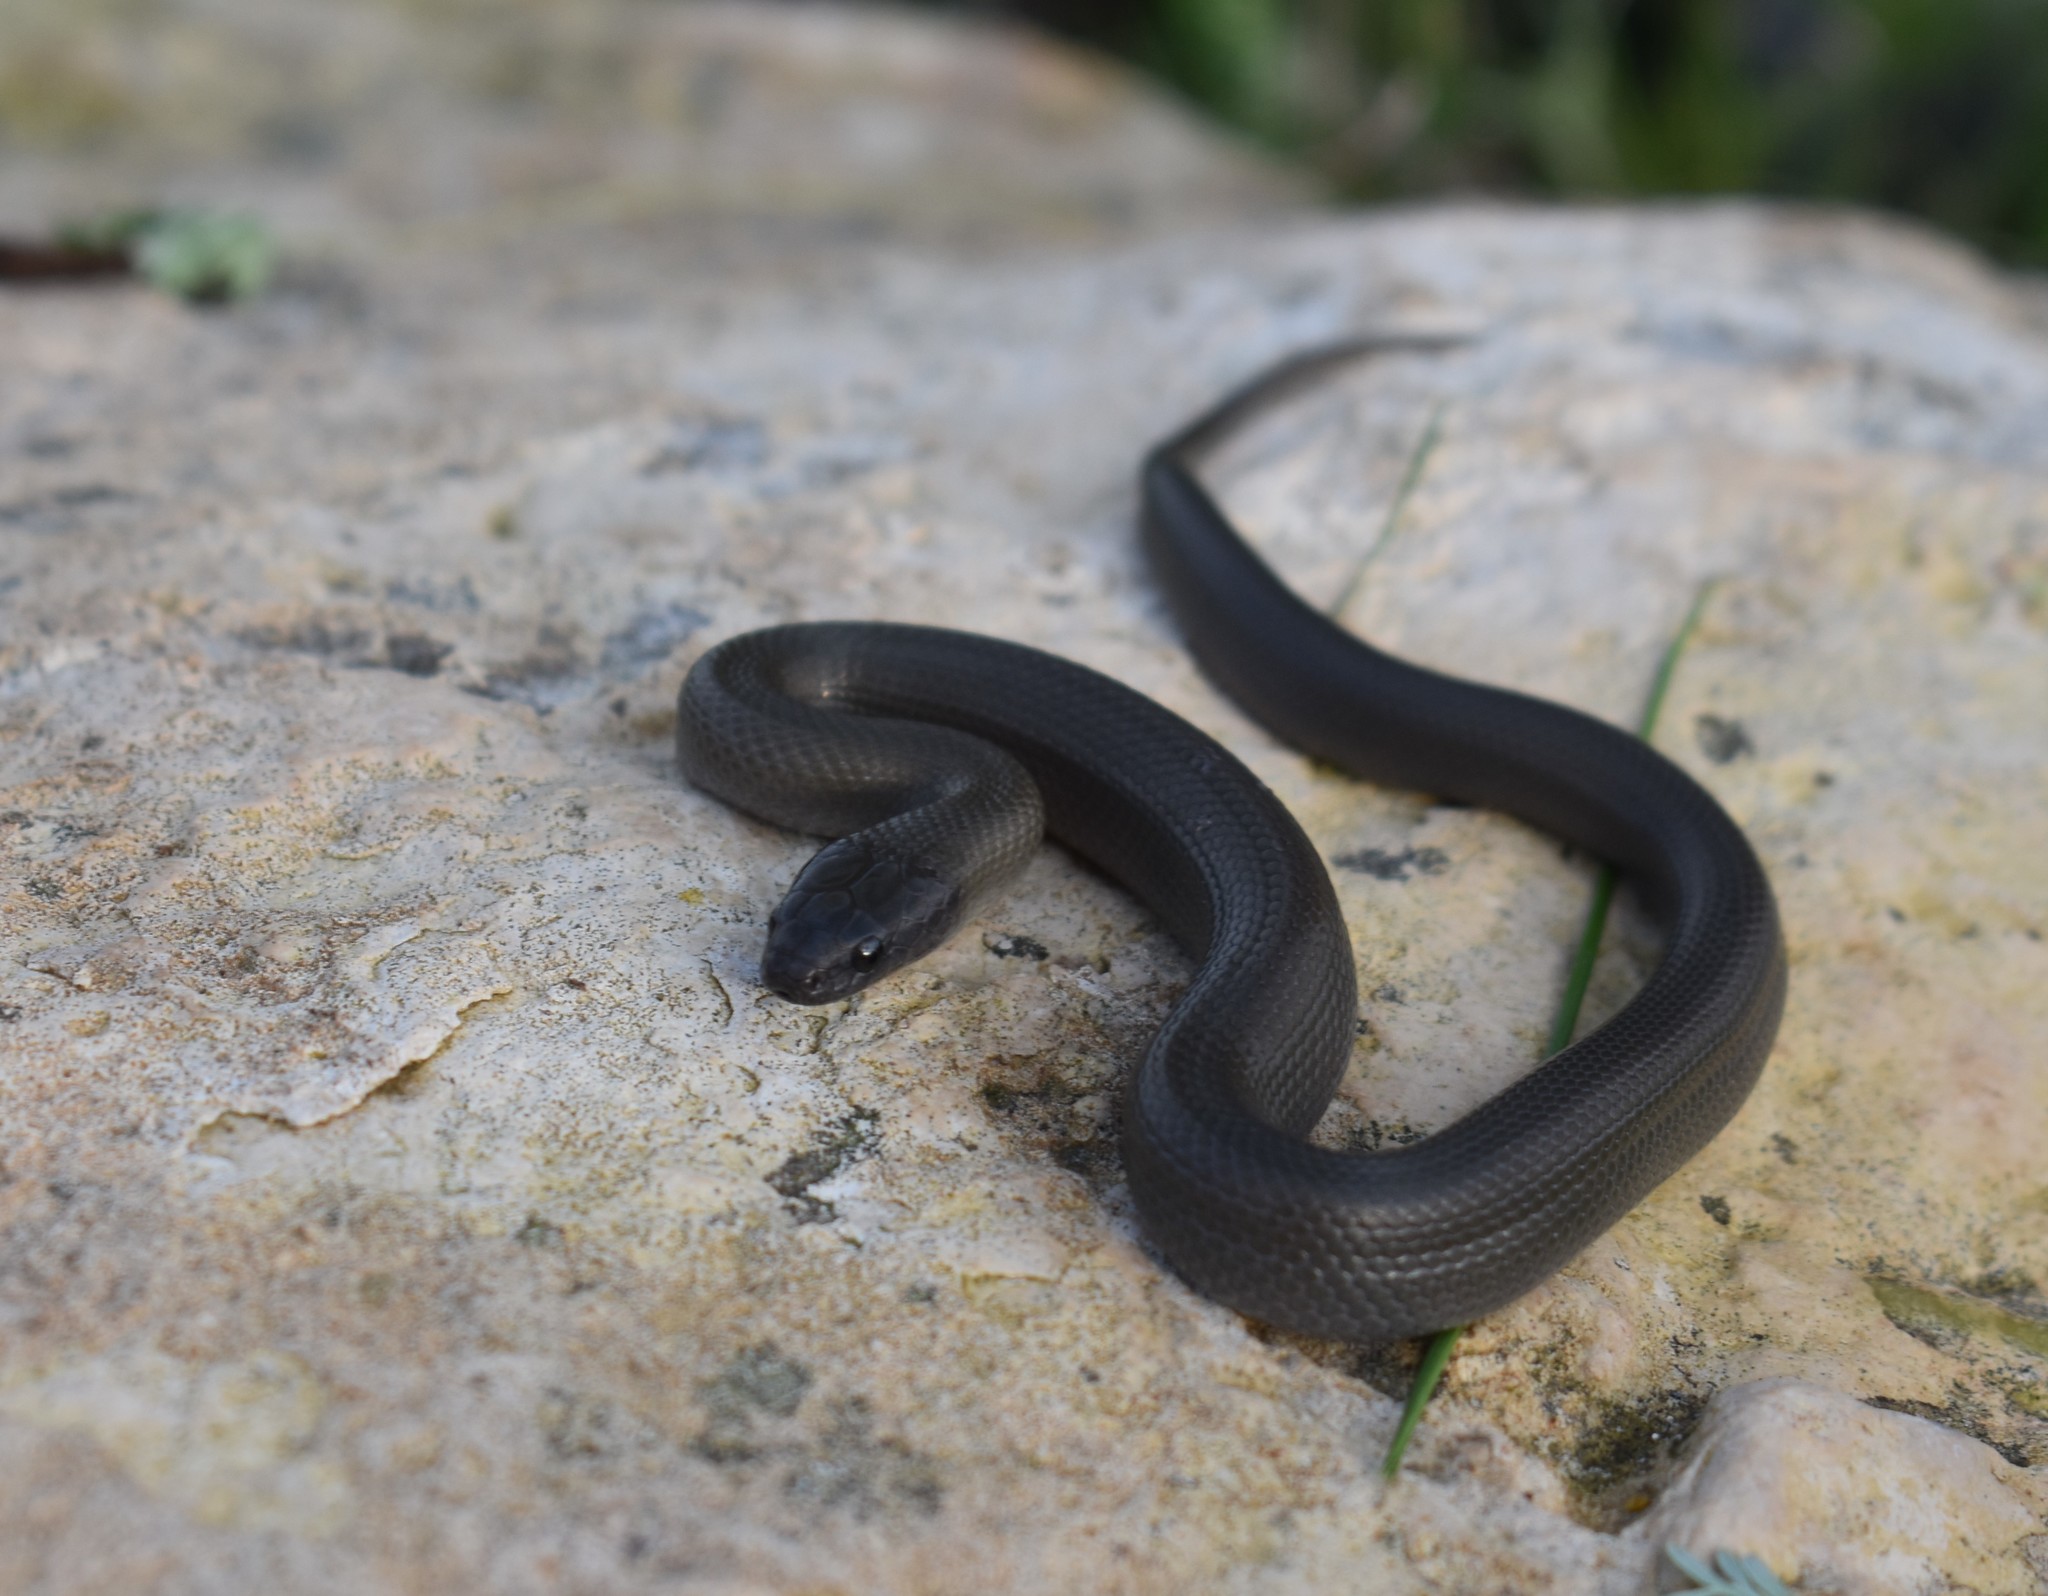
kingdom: Animalia
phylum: Chordata
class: Squamata
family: Lamprophiidae
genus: Lycodonomorphus
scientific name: Lycodonomorphus inornatus
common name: Black house snake
